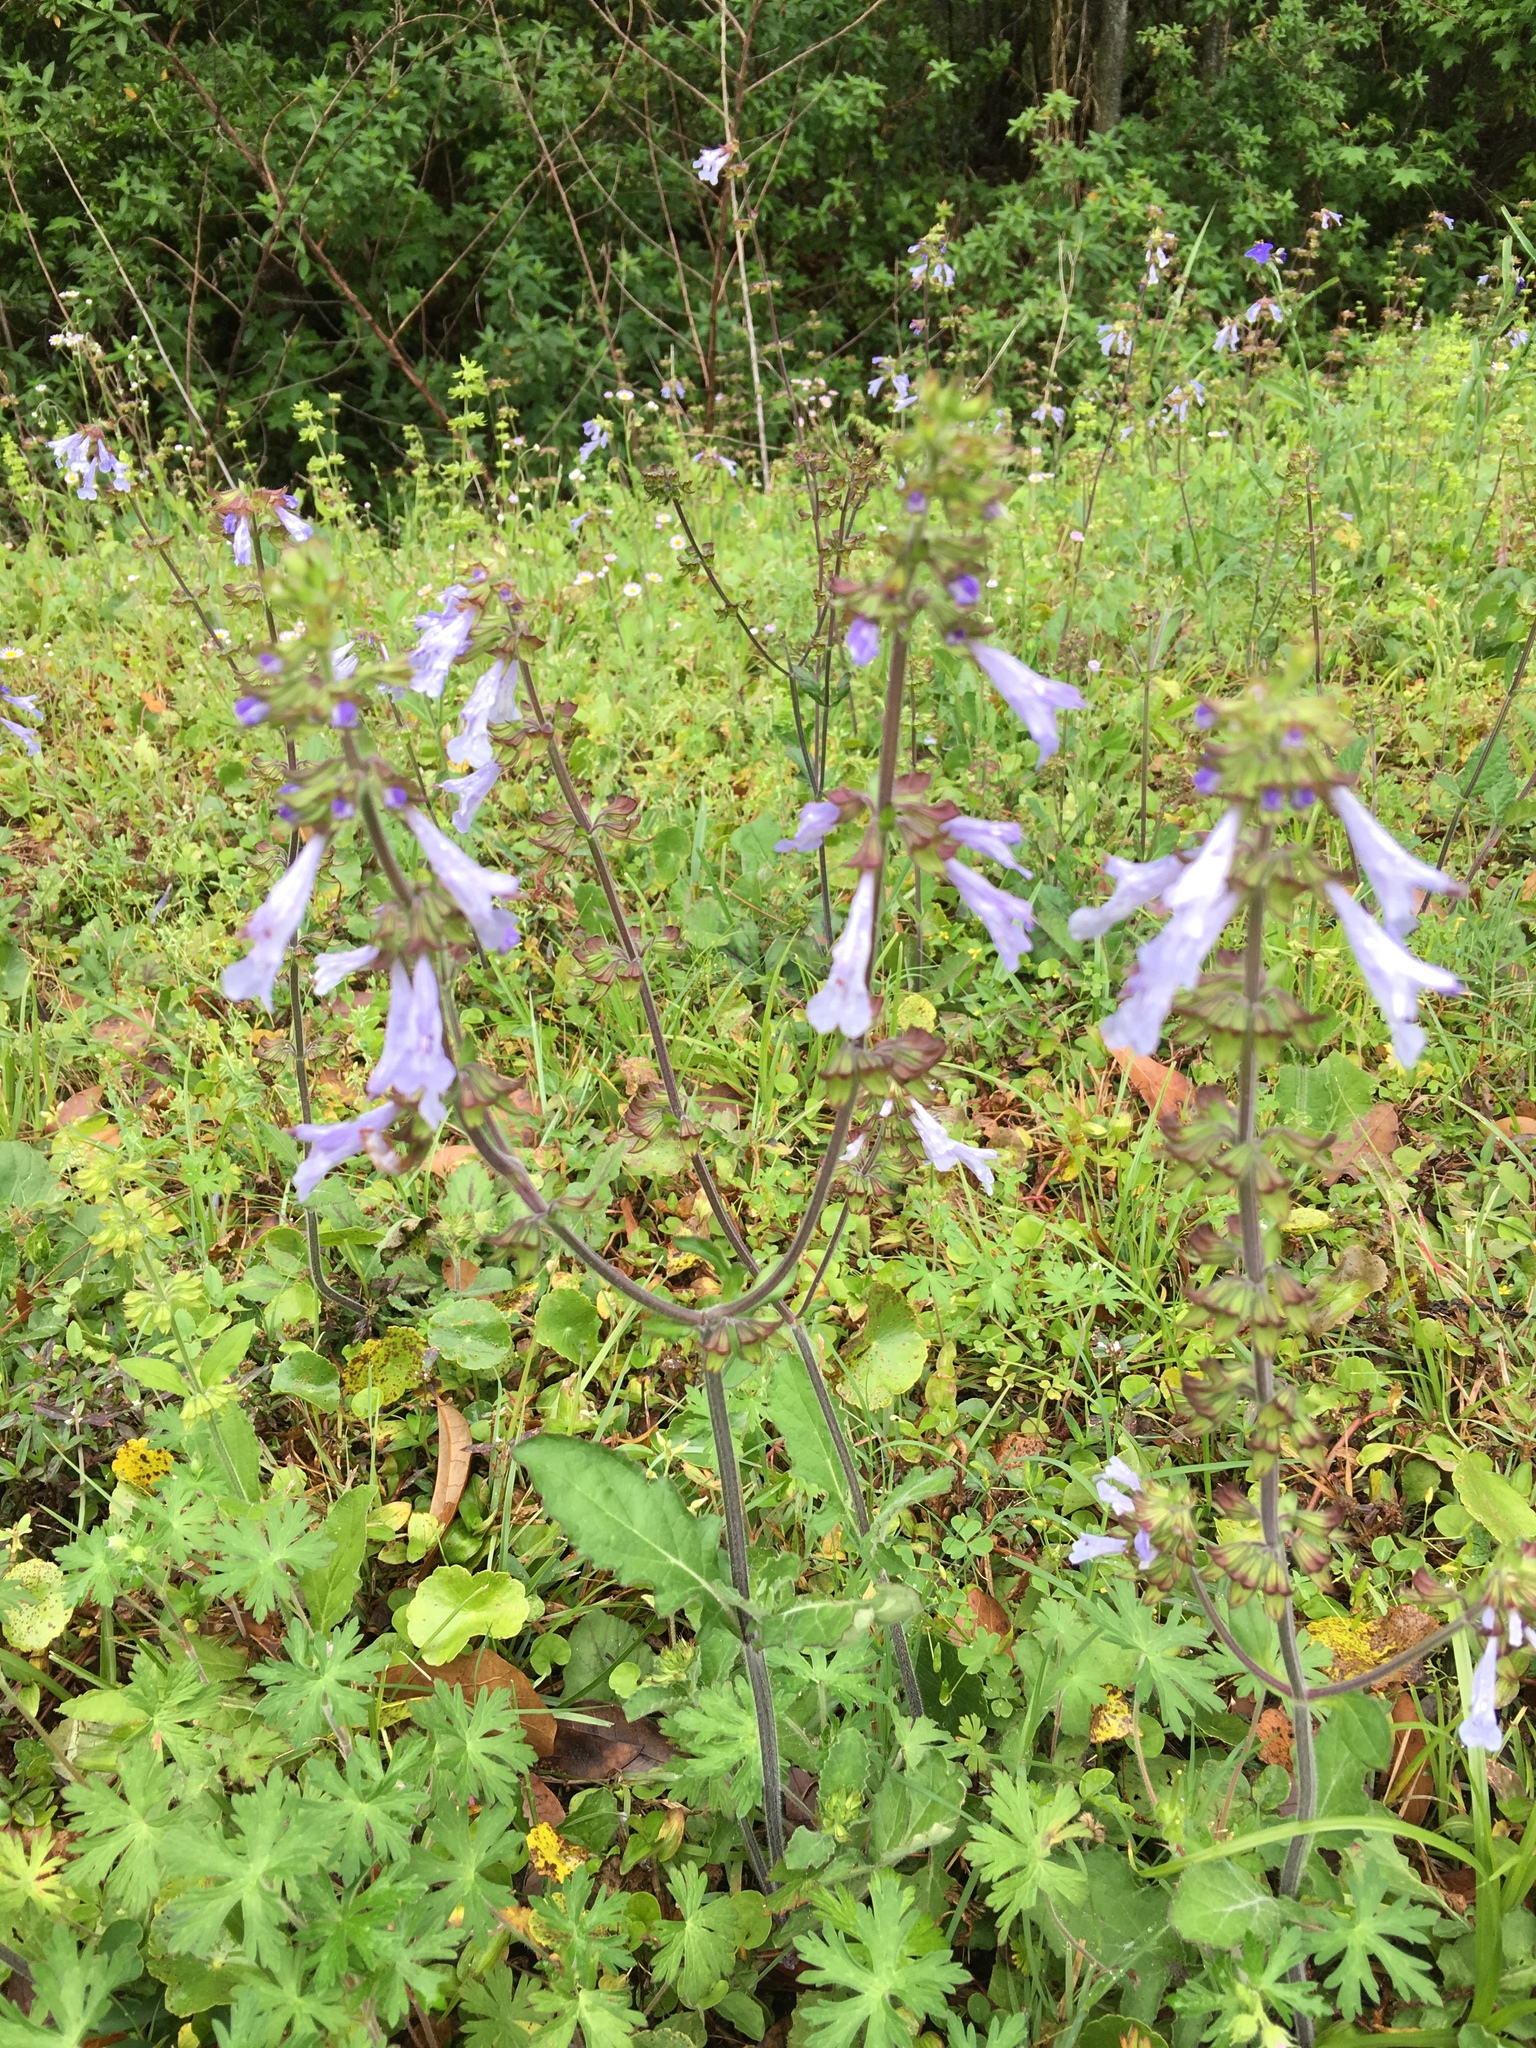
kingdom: Plantae
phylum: Tracheophyta
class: Magnoliopsida
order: Lamiales
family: Lamiaceae
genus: Salvia
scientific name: Salvia lyrata
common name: Cancerweed
